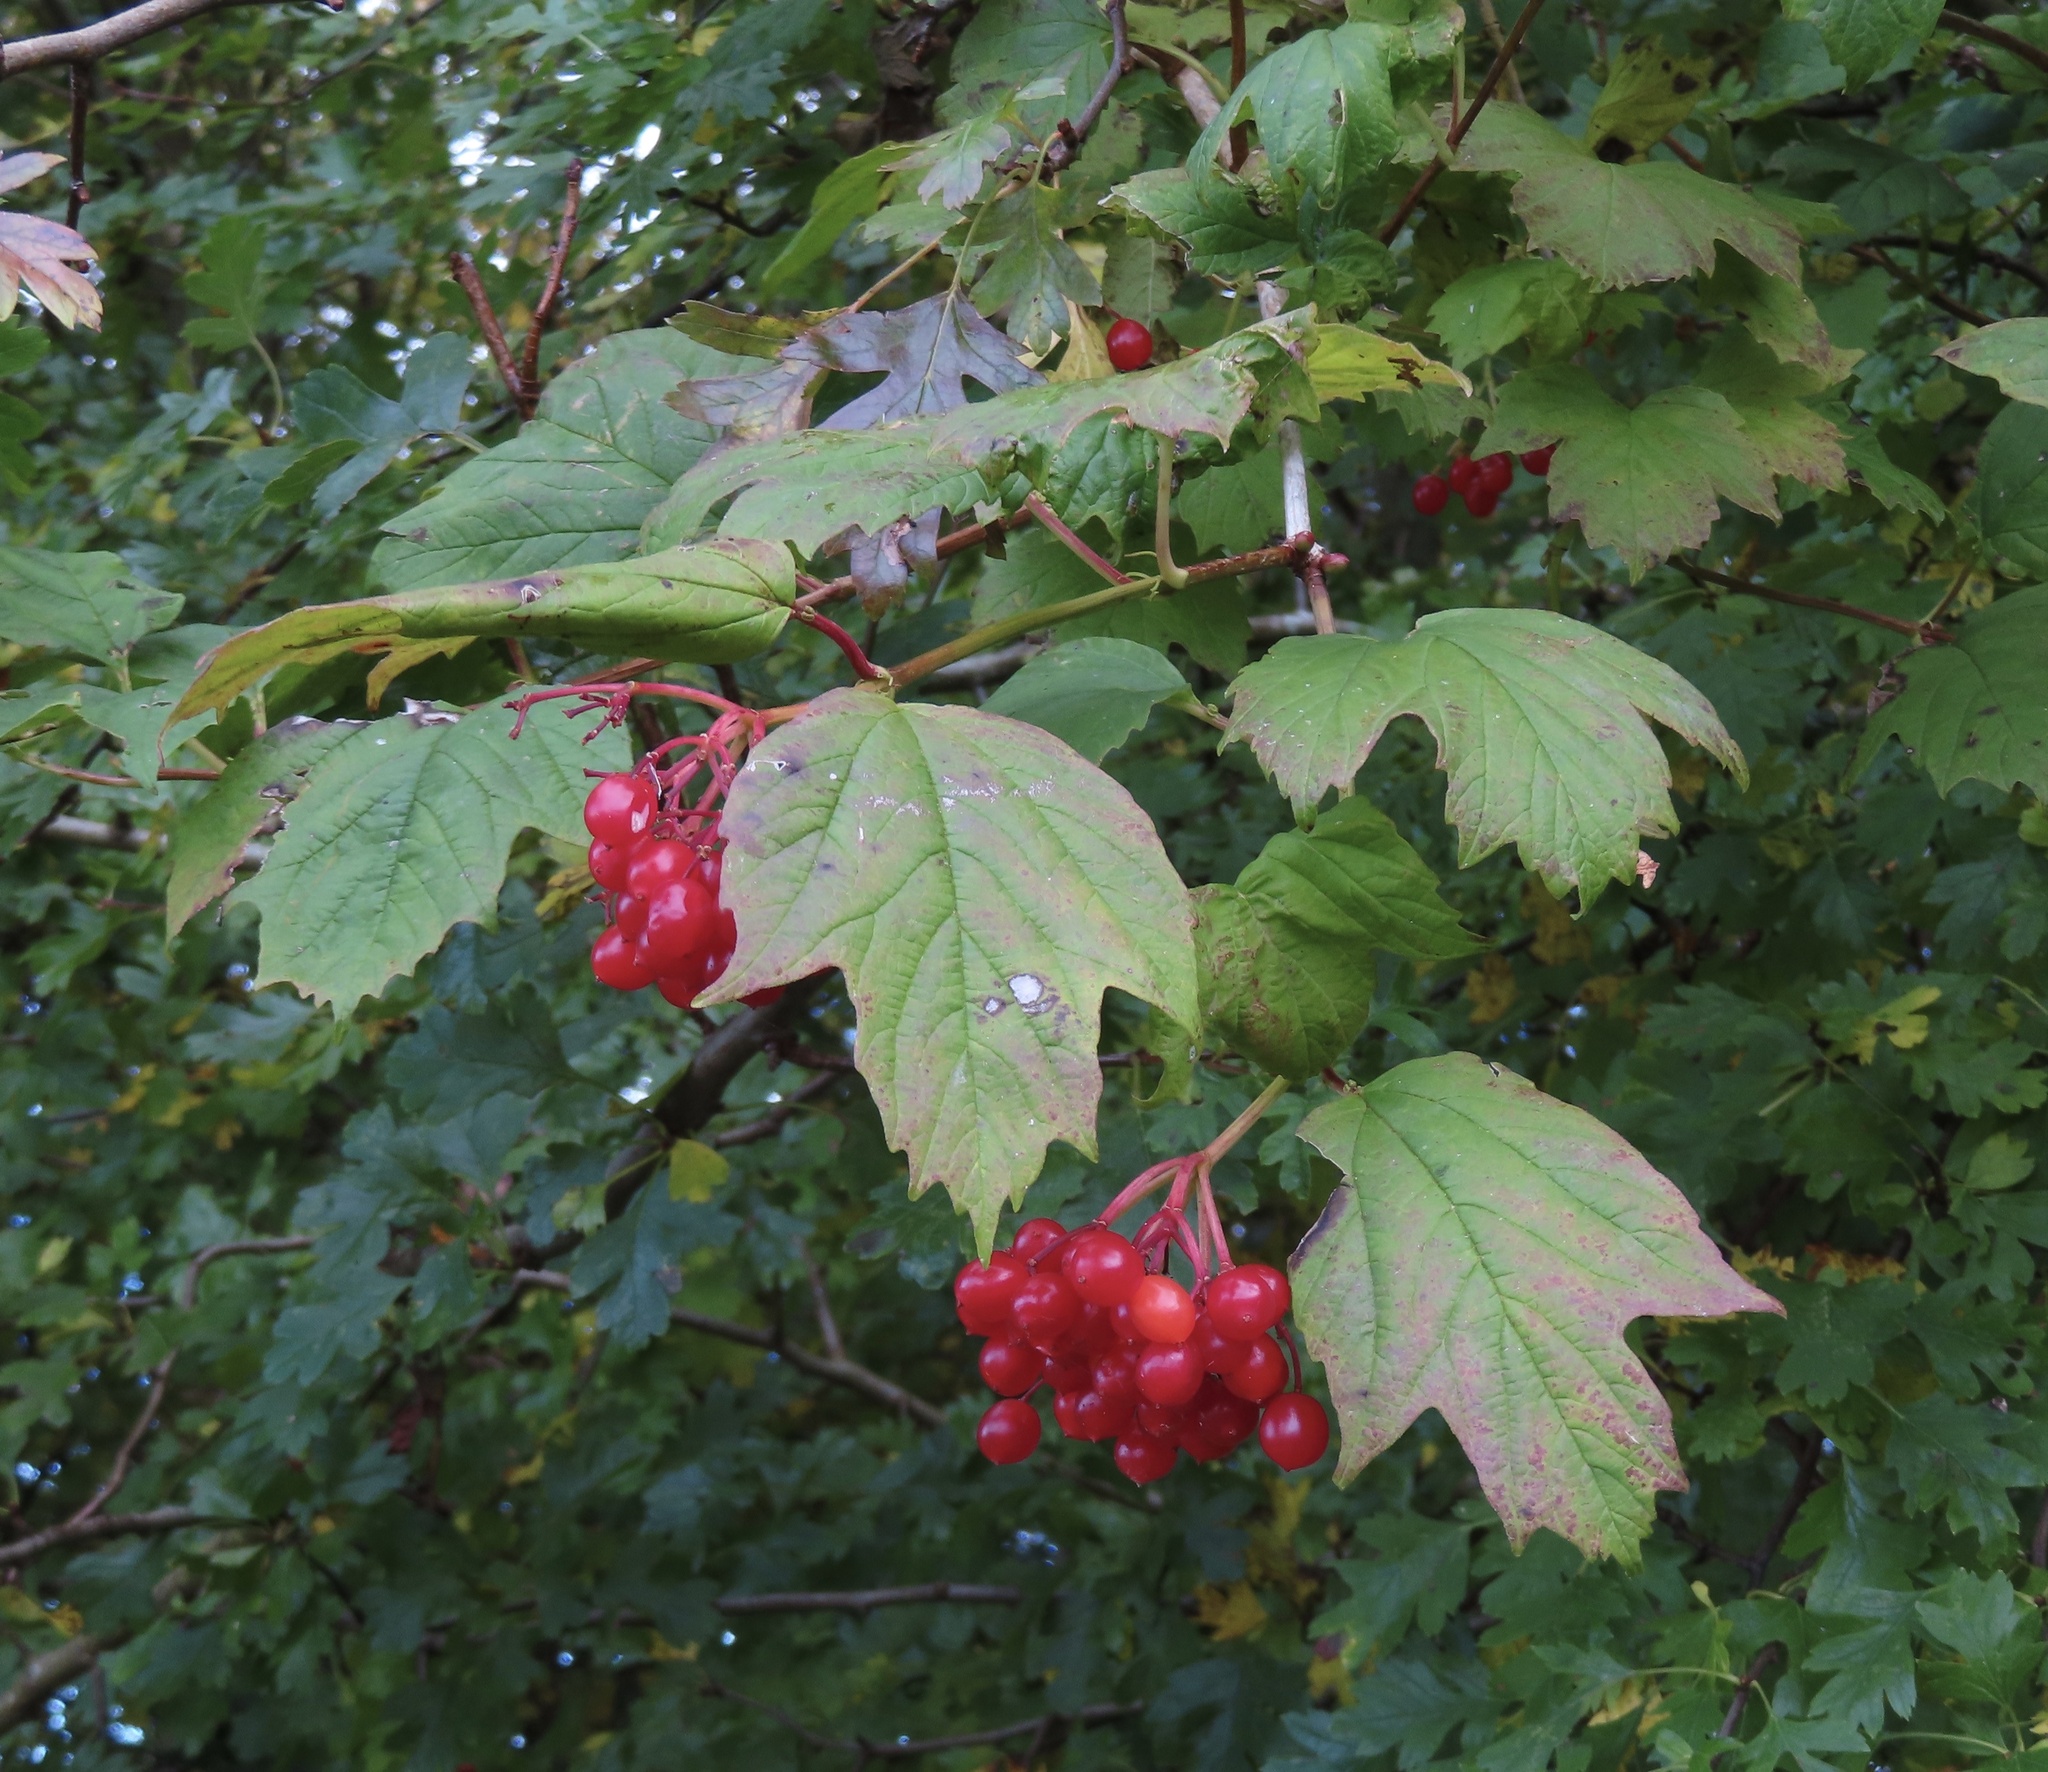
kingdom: Plantae
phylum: Tracheophyta
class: Magnoliopsida
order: Dipsacales
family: Viburnaceae
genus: Viburnum
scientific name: Viburnum opulus
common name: Guelder-rose
